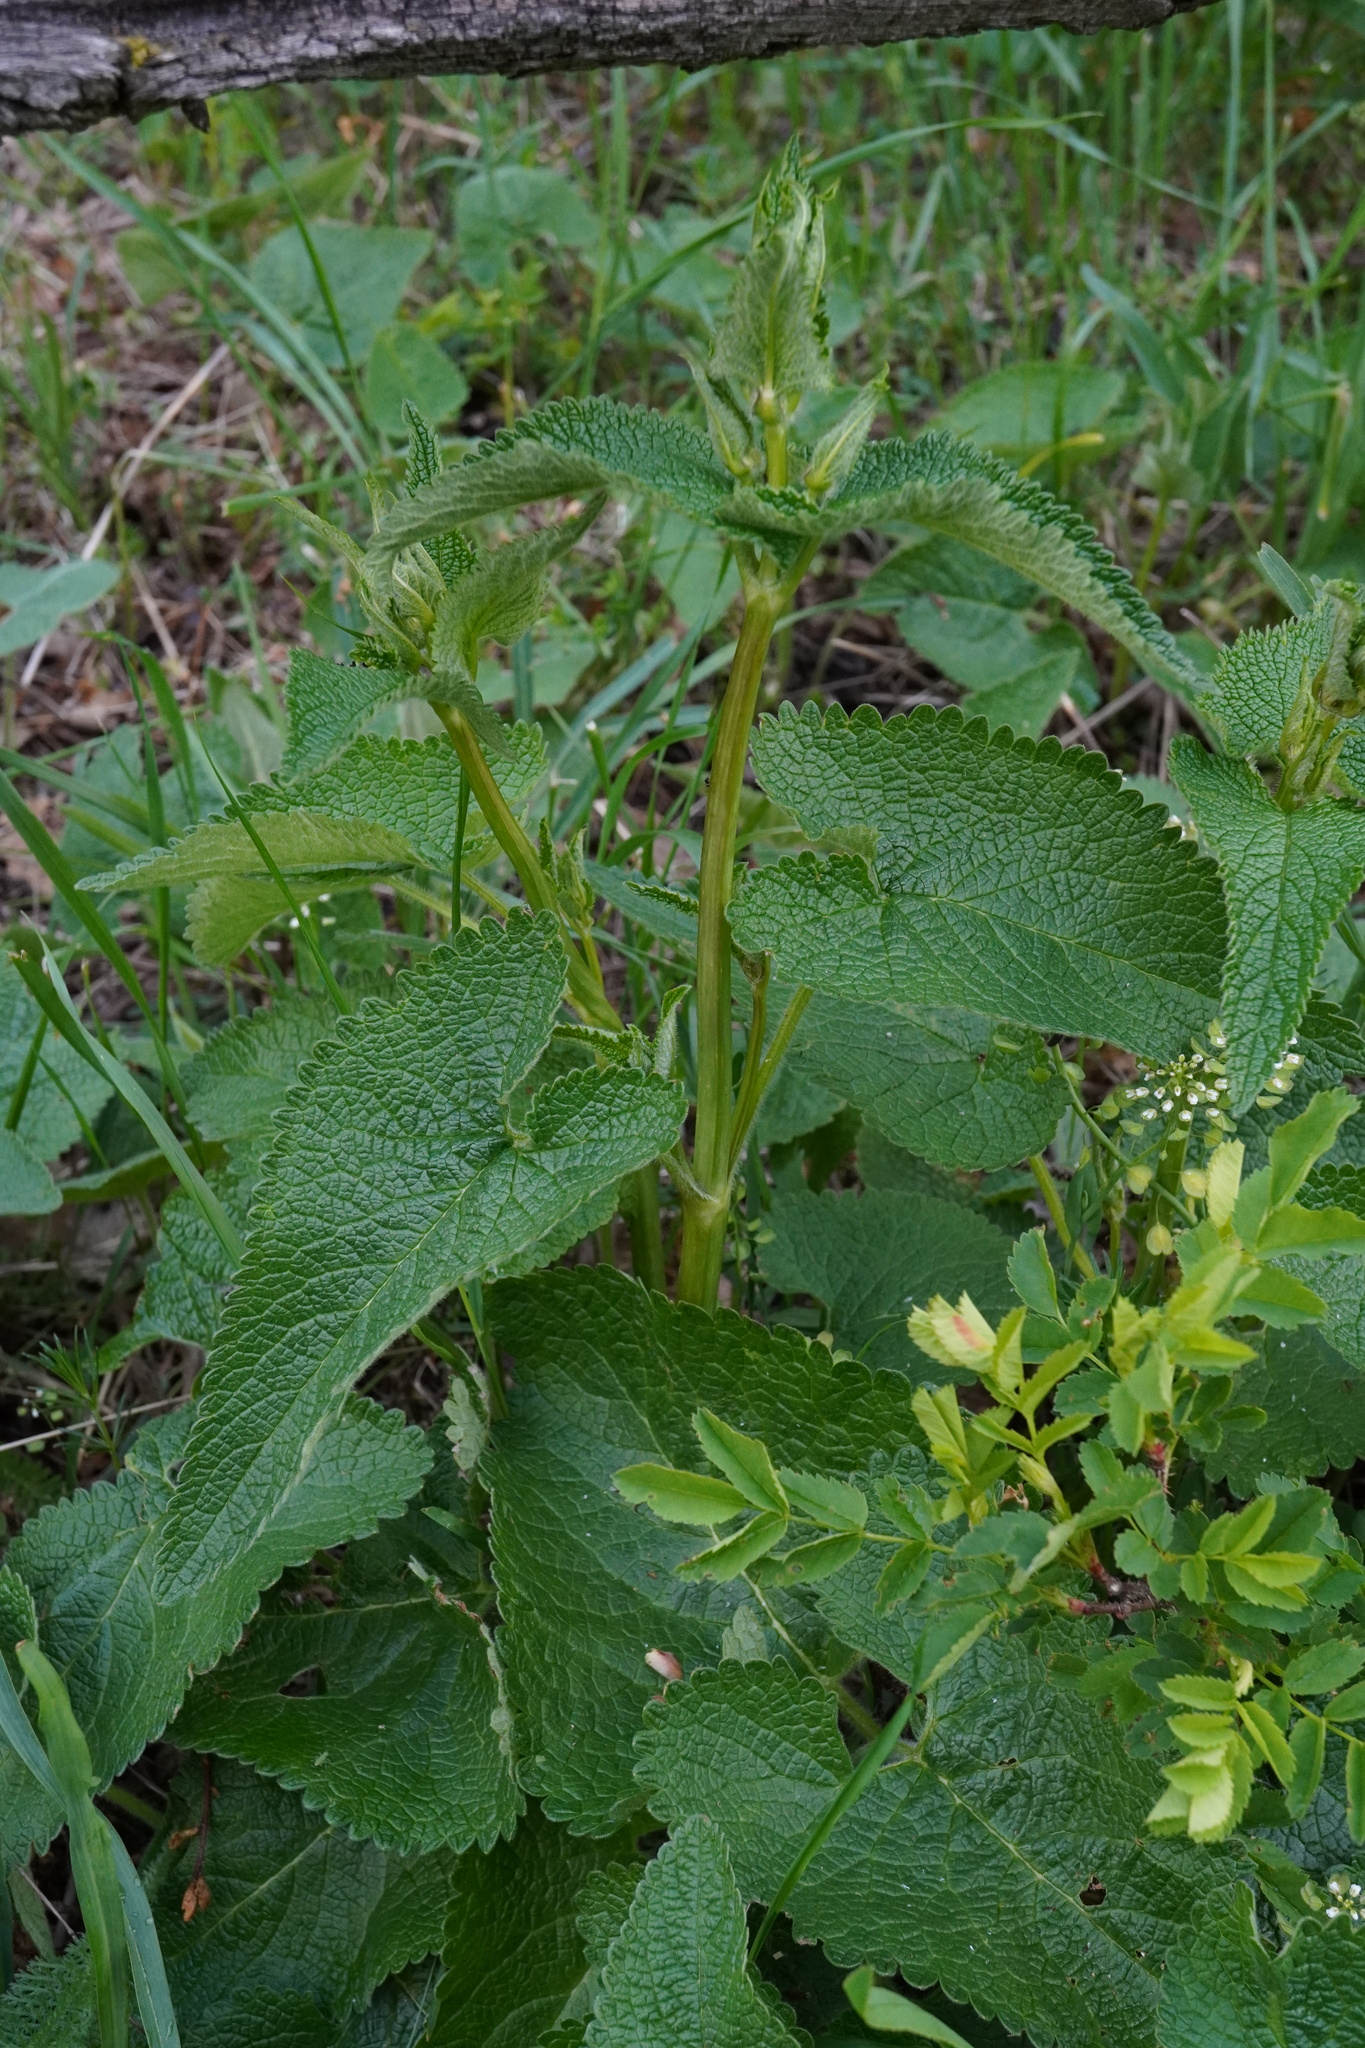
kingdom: Plantae
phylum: Tracheophyta
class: Magnoliopsida
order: Lamiales
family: Lamiaceae
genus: Phlomoides
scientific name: Phlomoides tuberosa
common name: Tuberous jerusalem sage
